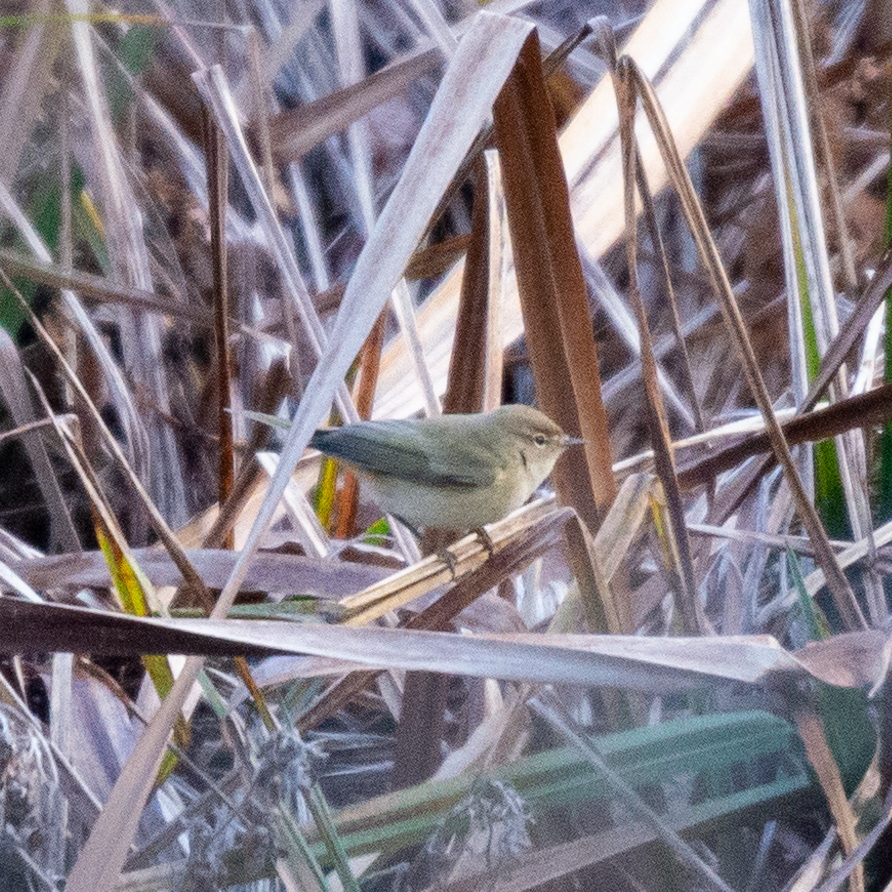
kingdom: Animalia
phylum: Chordata
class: Aves
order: Passeriformes
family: Phylloscopidae
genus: Phylloscopus
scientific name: Phylloscopus collybita
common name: Common chiffchaff
